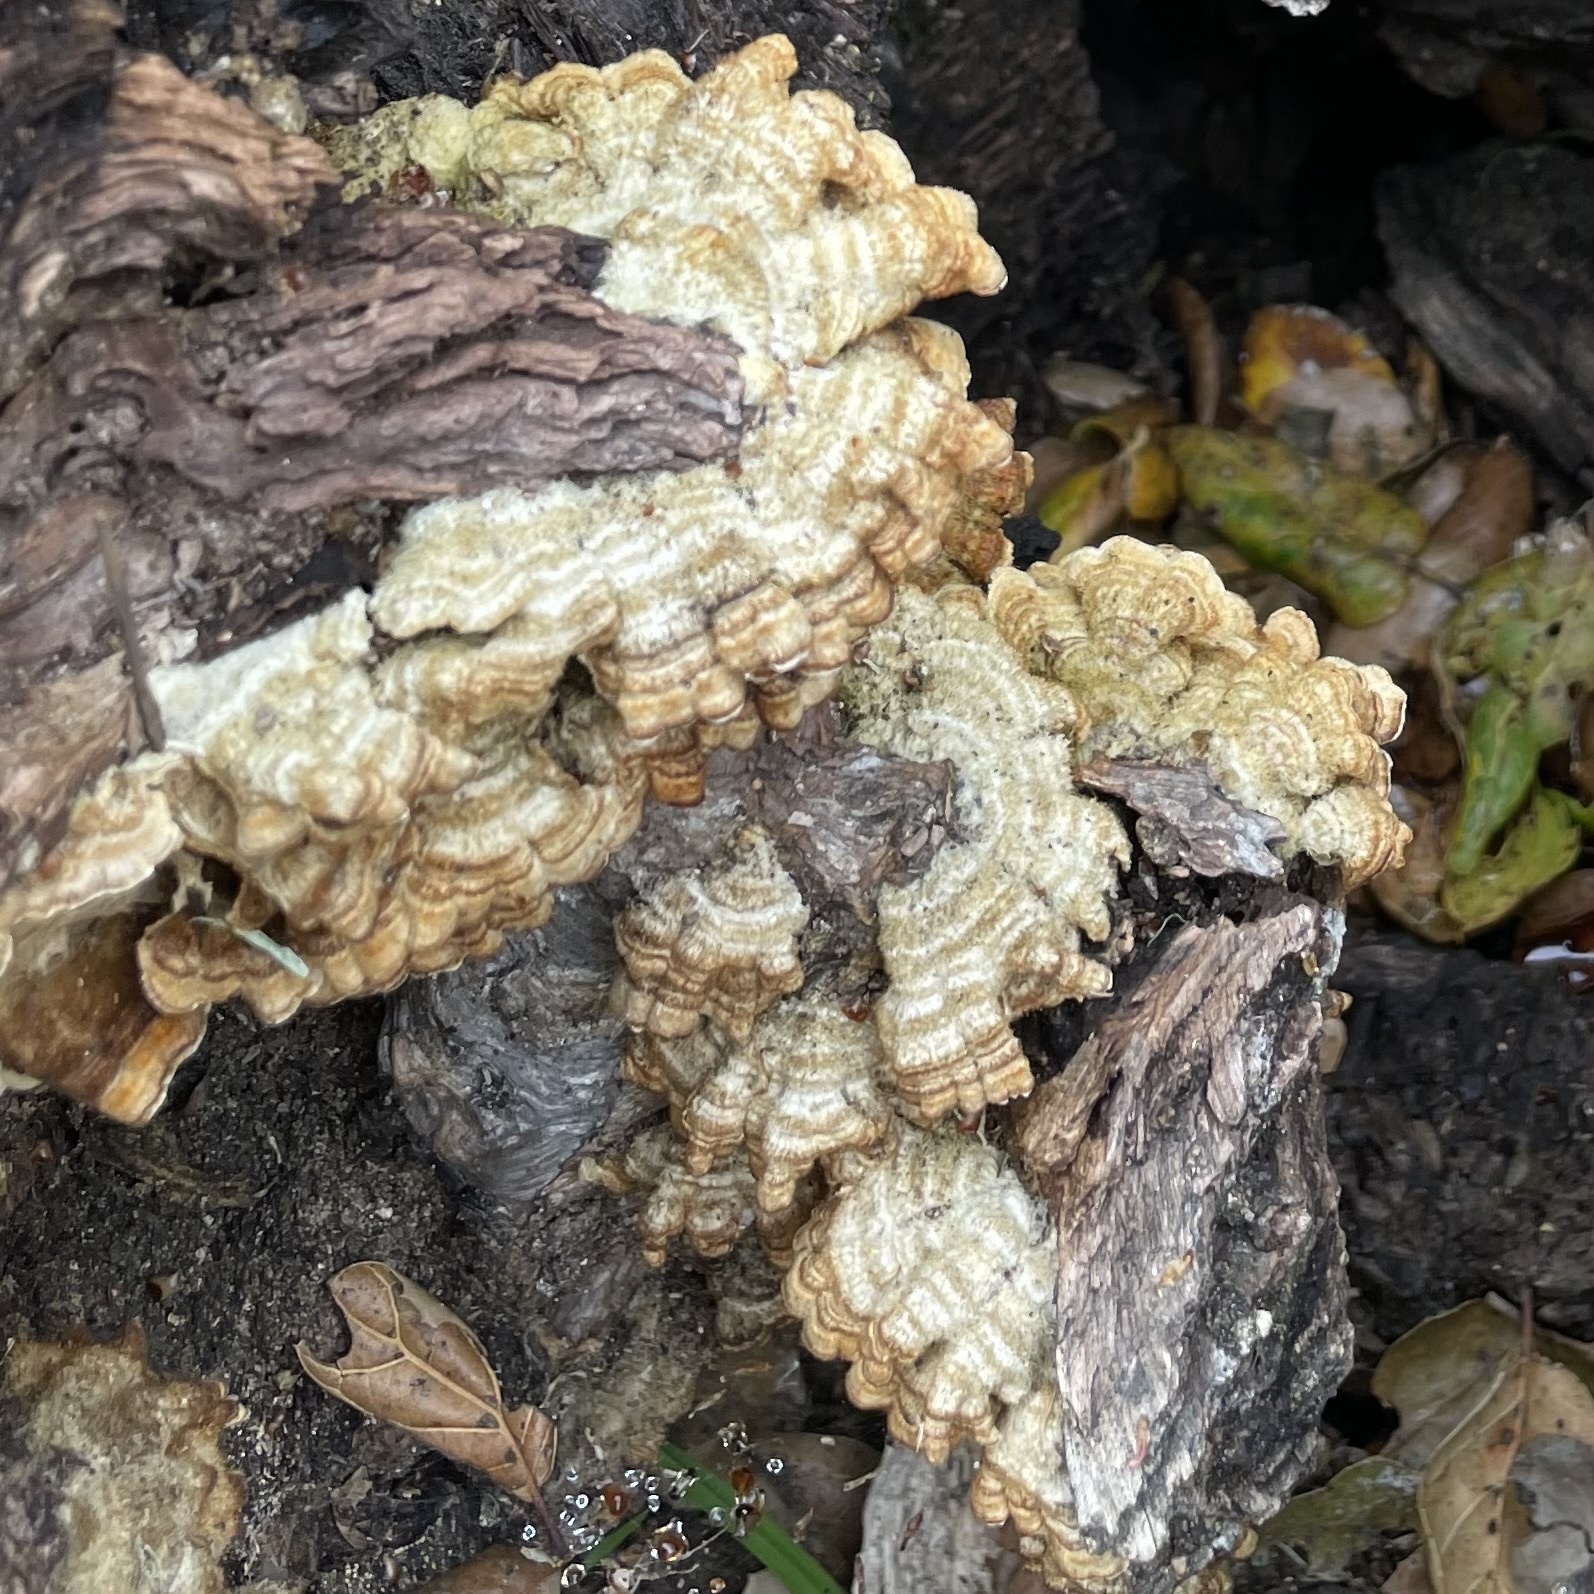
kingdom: Fungi
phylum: Basidiomycota
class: Agaricomycetes
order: Russulales
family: Stereaceae
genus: Stereum
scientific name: Stereum hirsutum
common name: Hairy curtain crust
